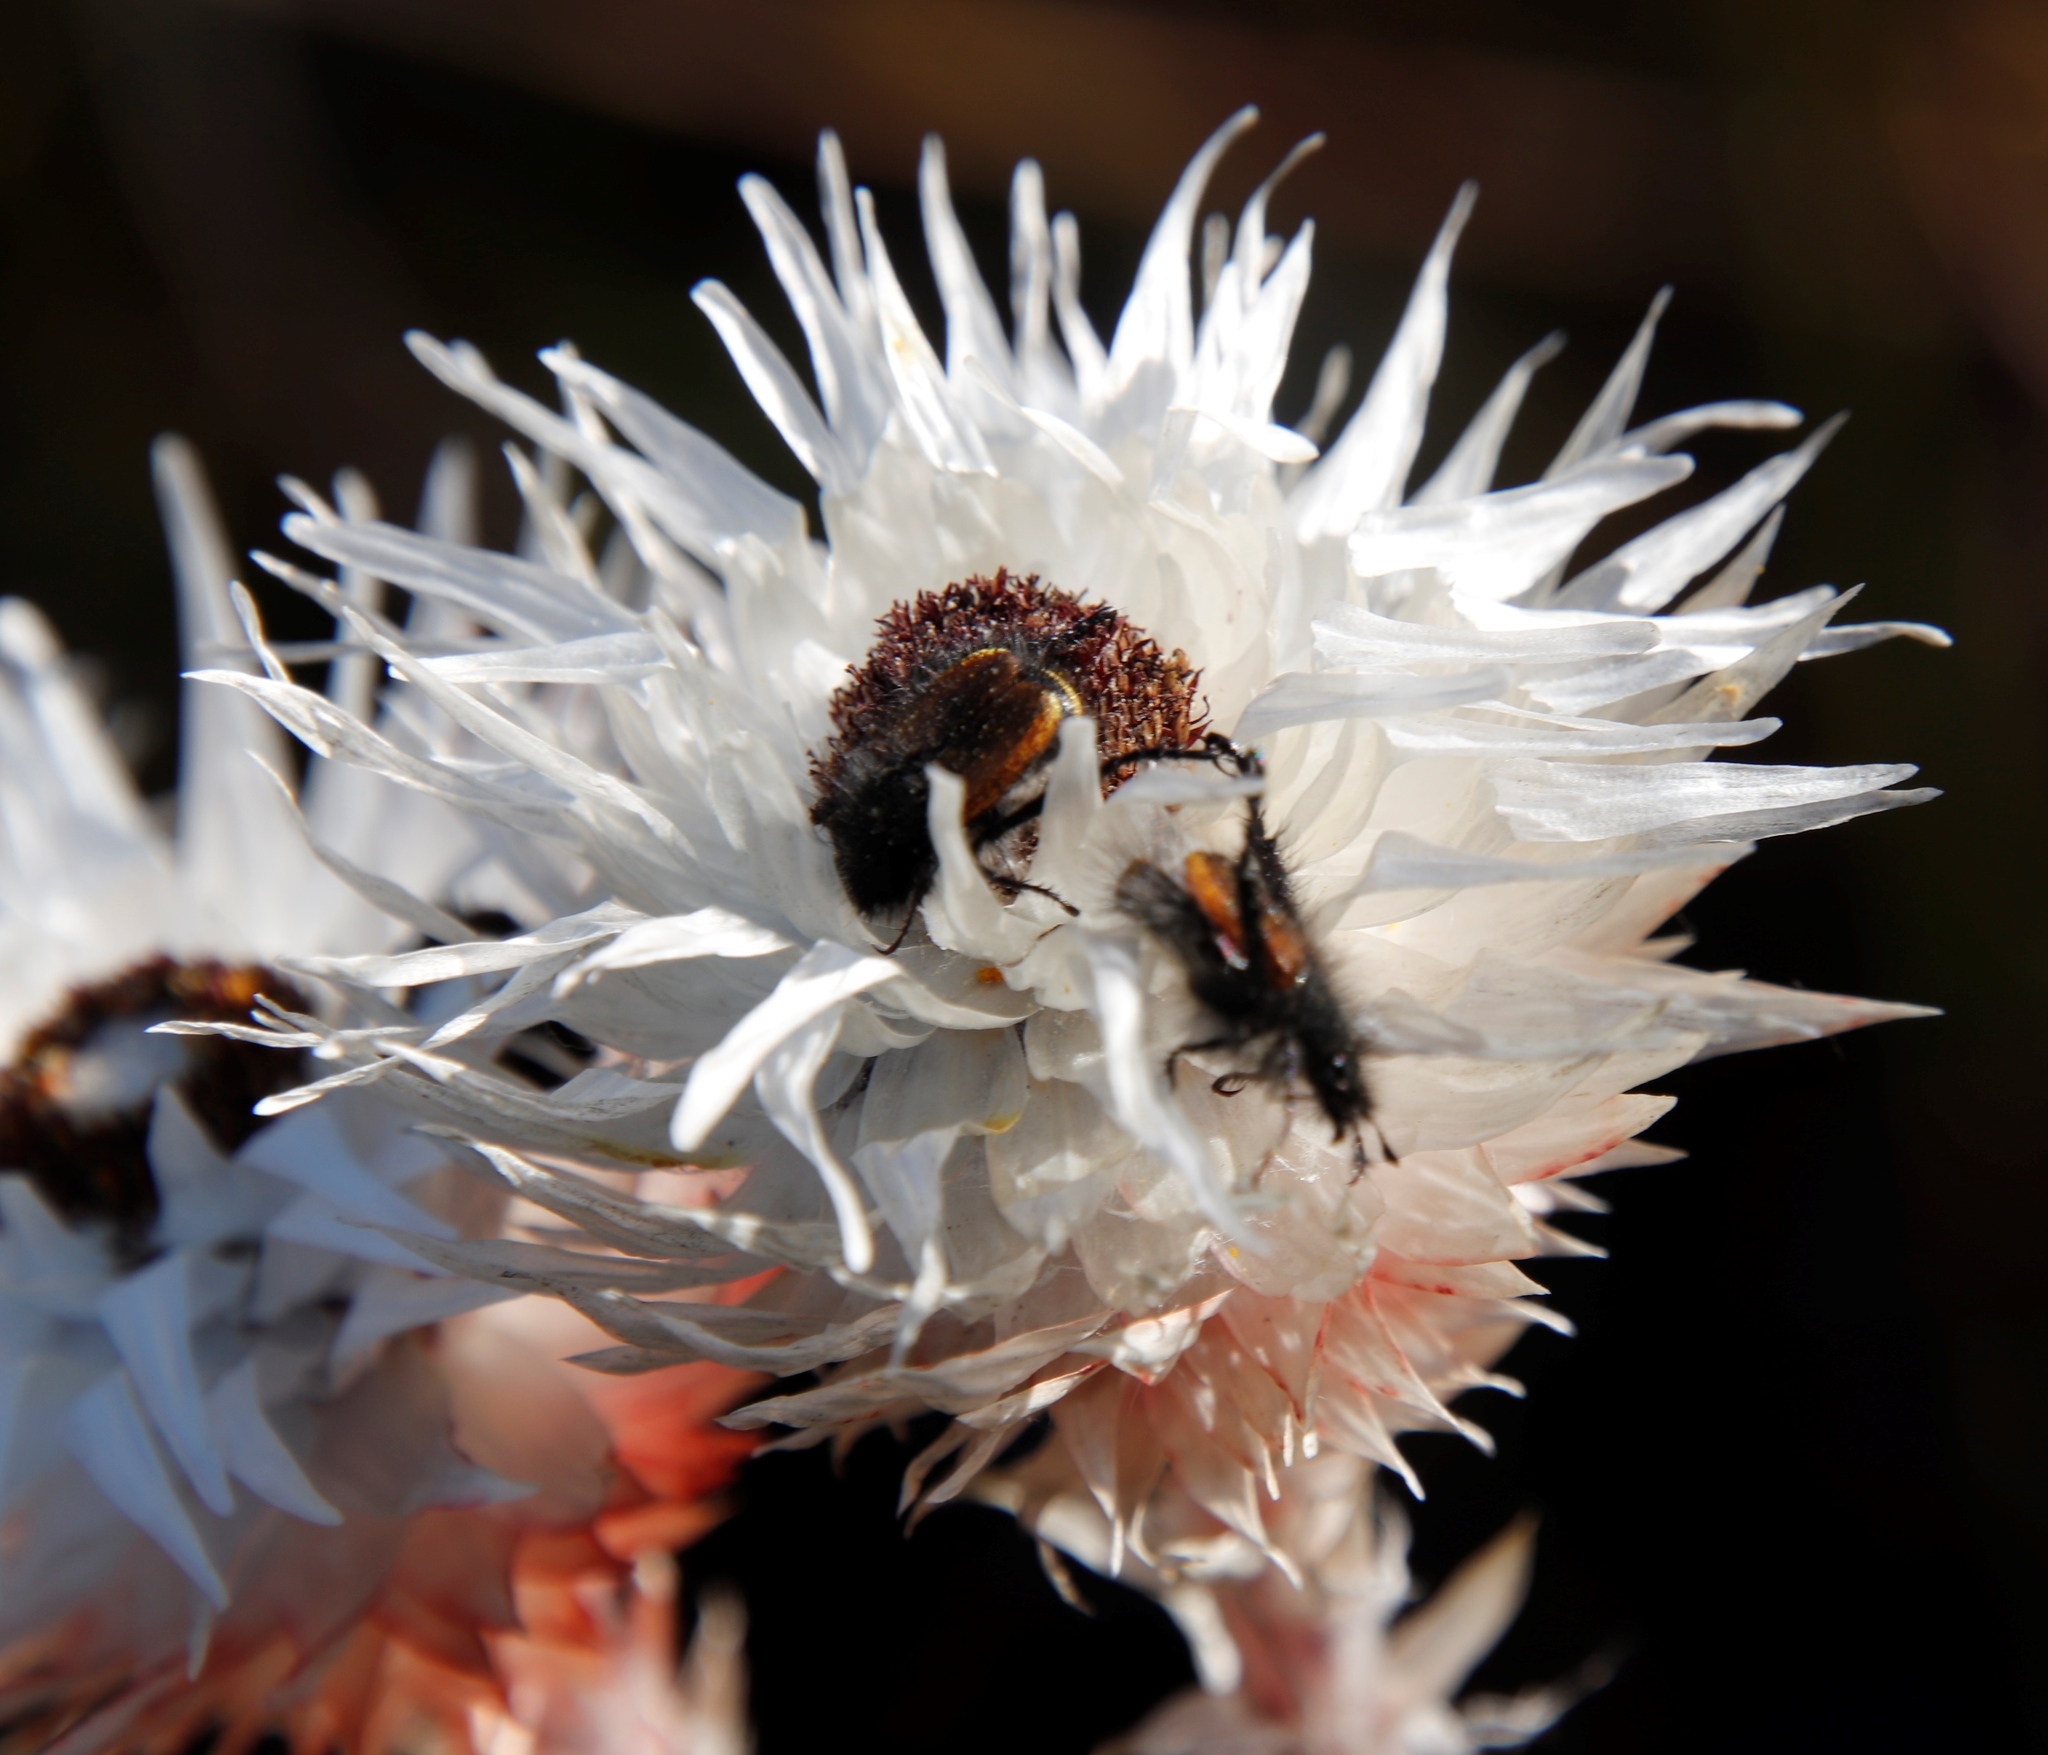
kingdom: Plantae
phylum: Tracheophyta
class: Magnoliopsida
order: Asterales
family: Asteraceae
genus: Syncarpha
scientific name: Syncarpha zeyheri
